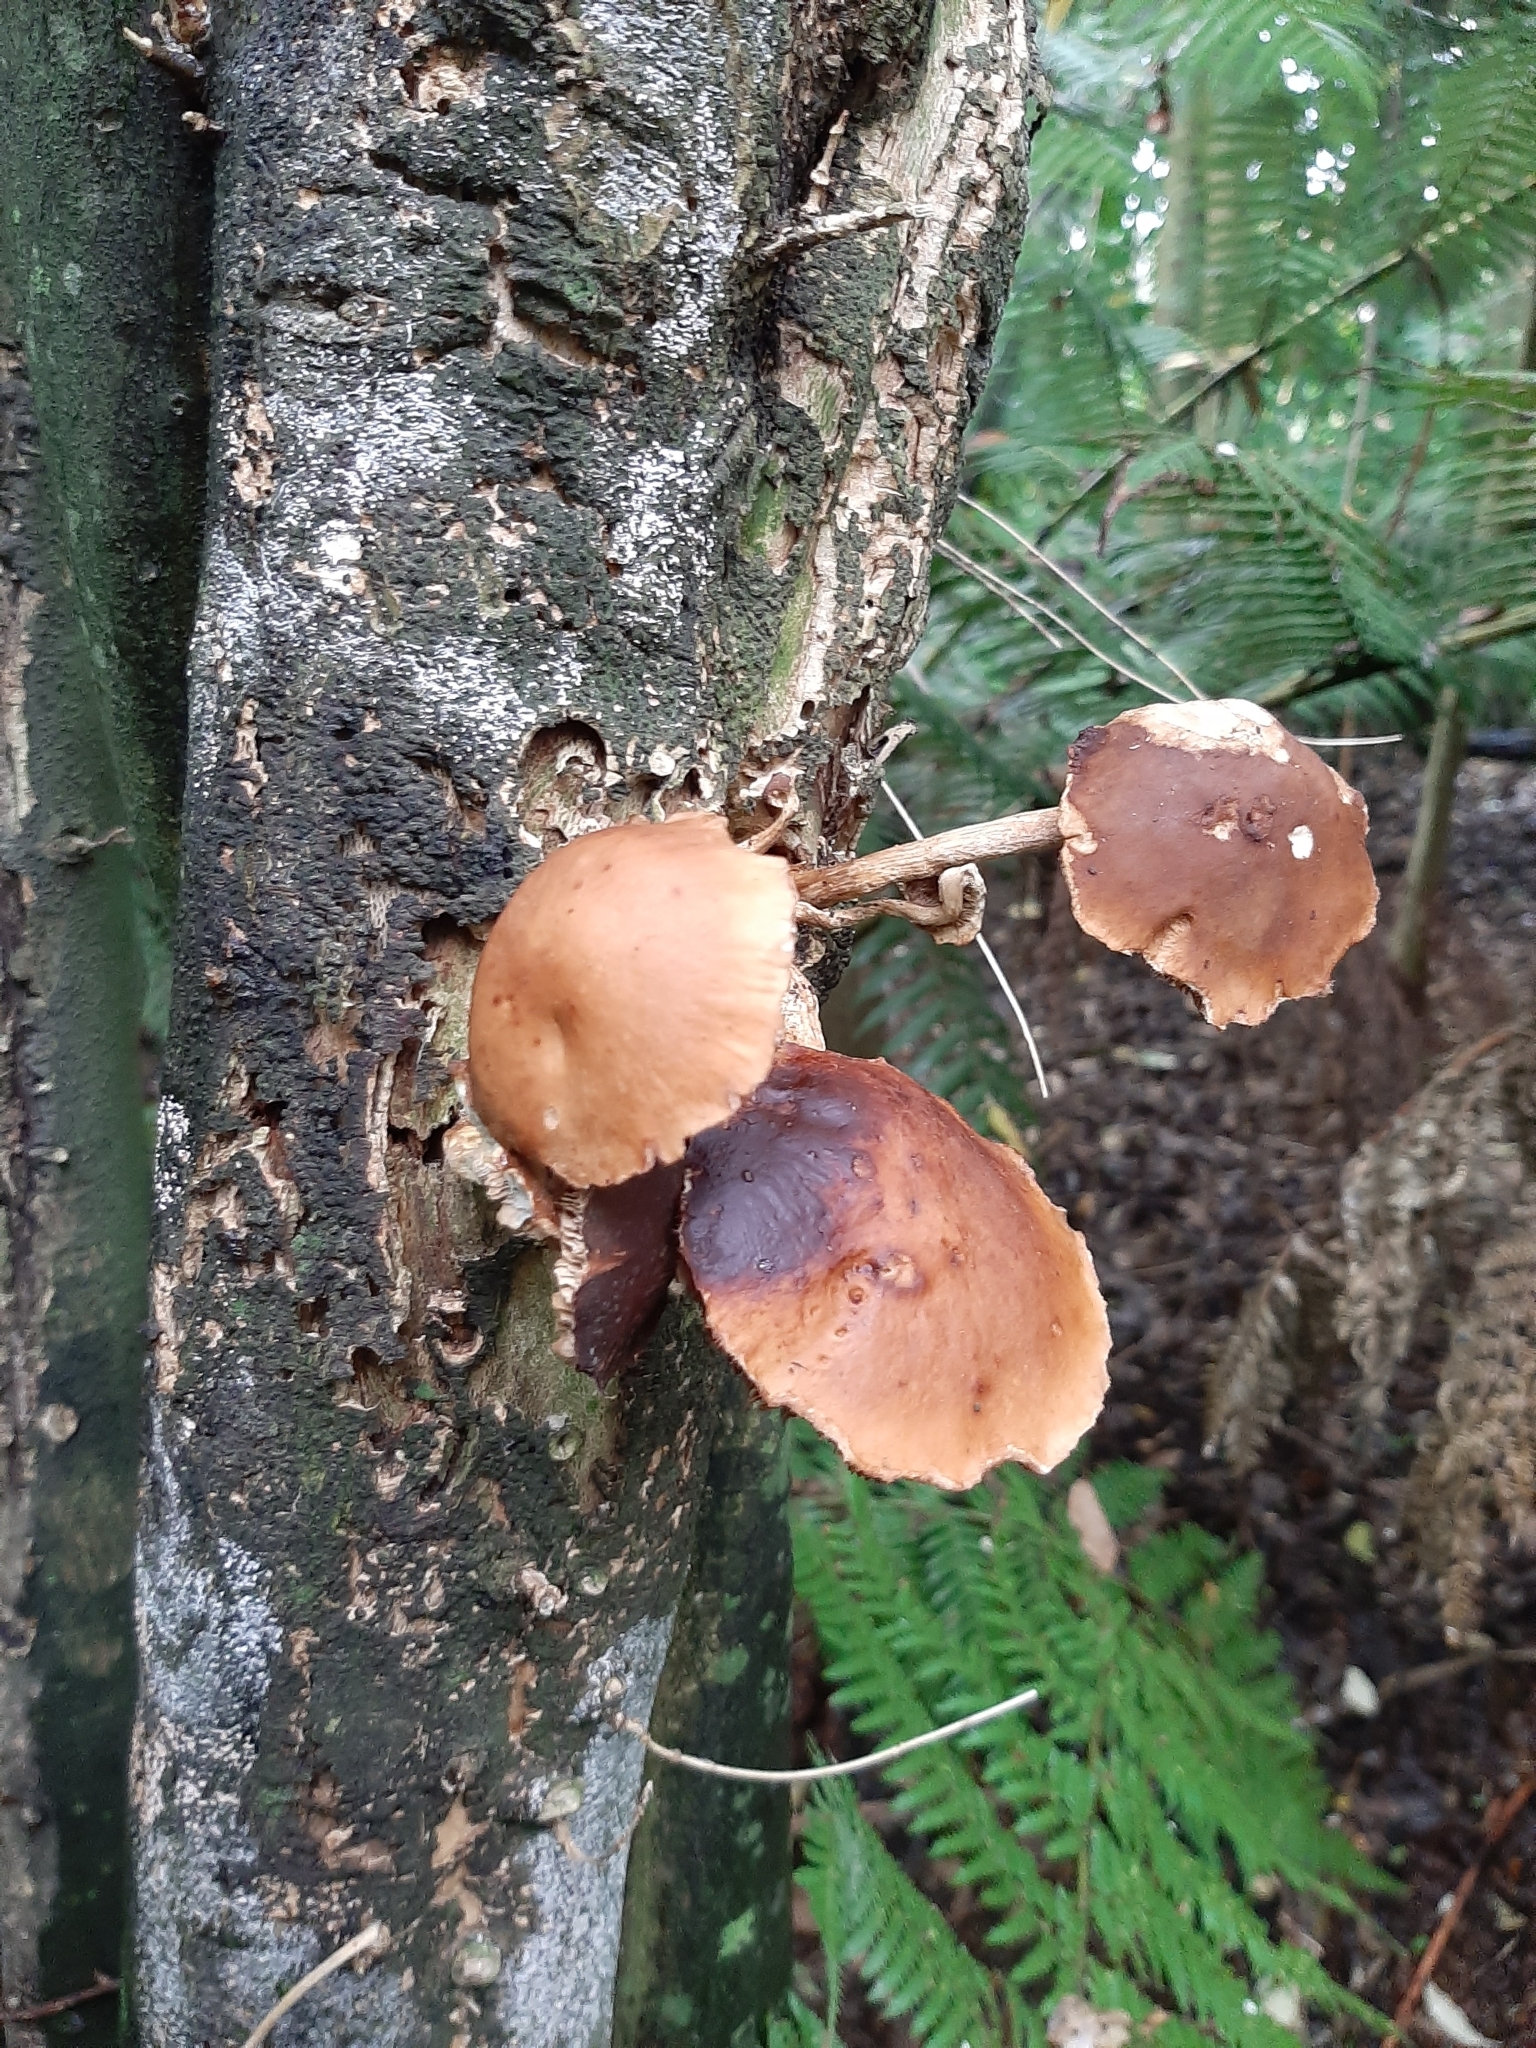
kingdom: Fungi
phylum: Basidiomycota
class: Agaricomycetes
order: Agaricales
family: Tubariaceae
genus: Cyclocybe
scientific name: Cyclocybe parasitica
